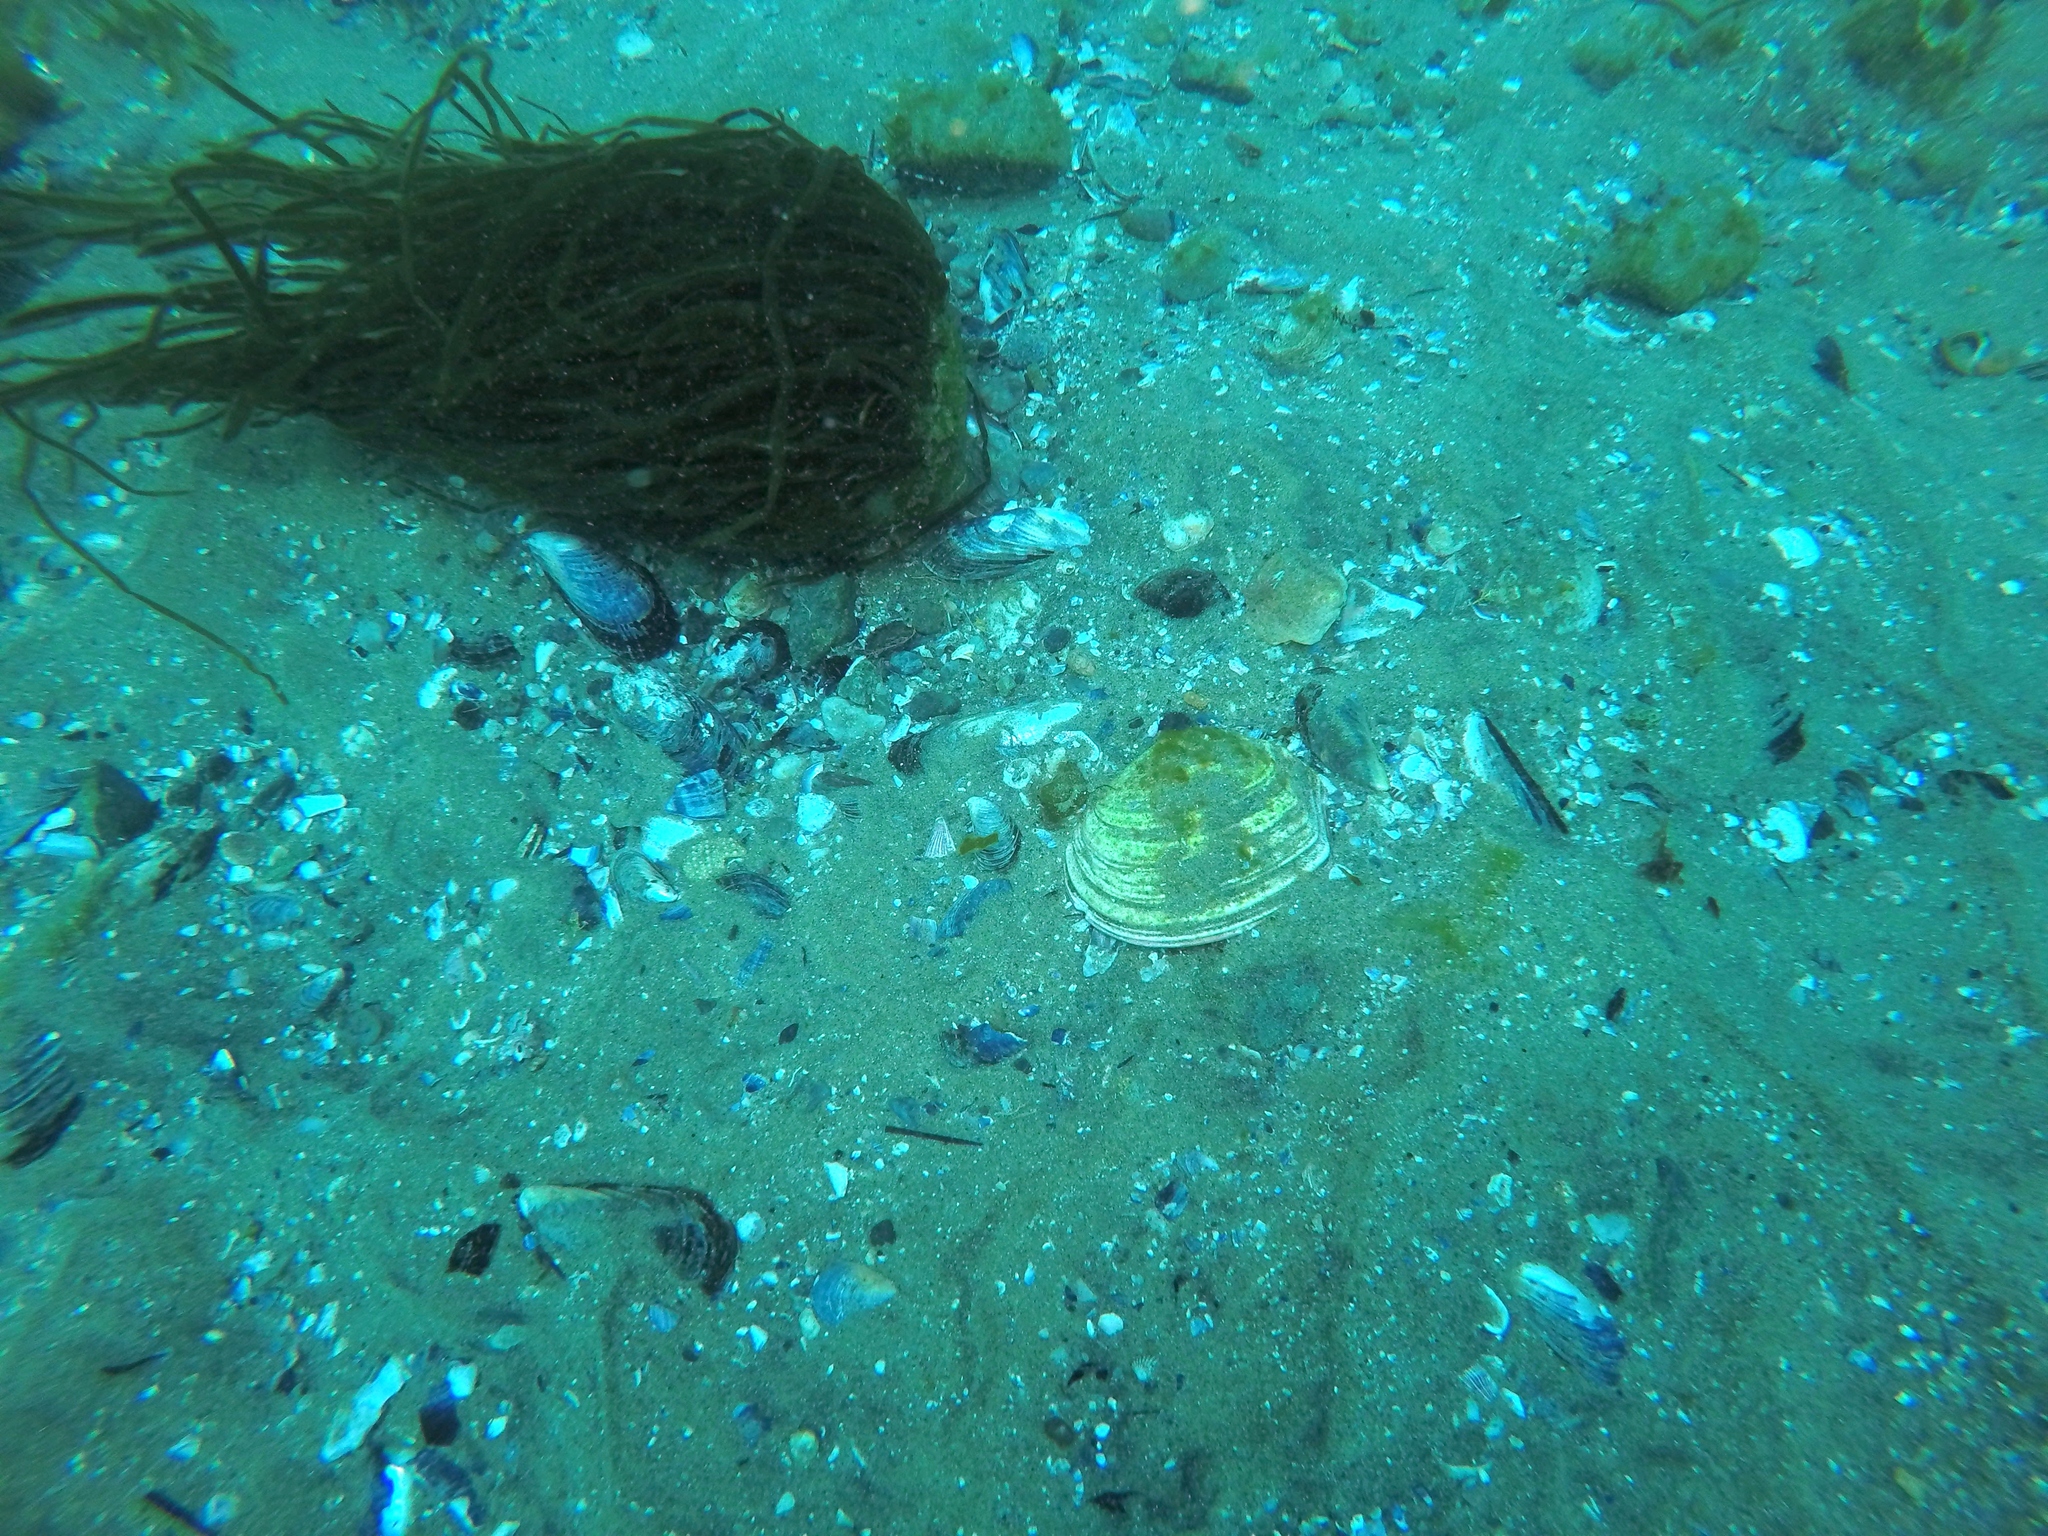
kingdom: Animalia
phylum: Mollusca
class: Bivalvia
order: Cardiida
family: Semelidae
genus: Semele
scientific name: Semele decisa
